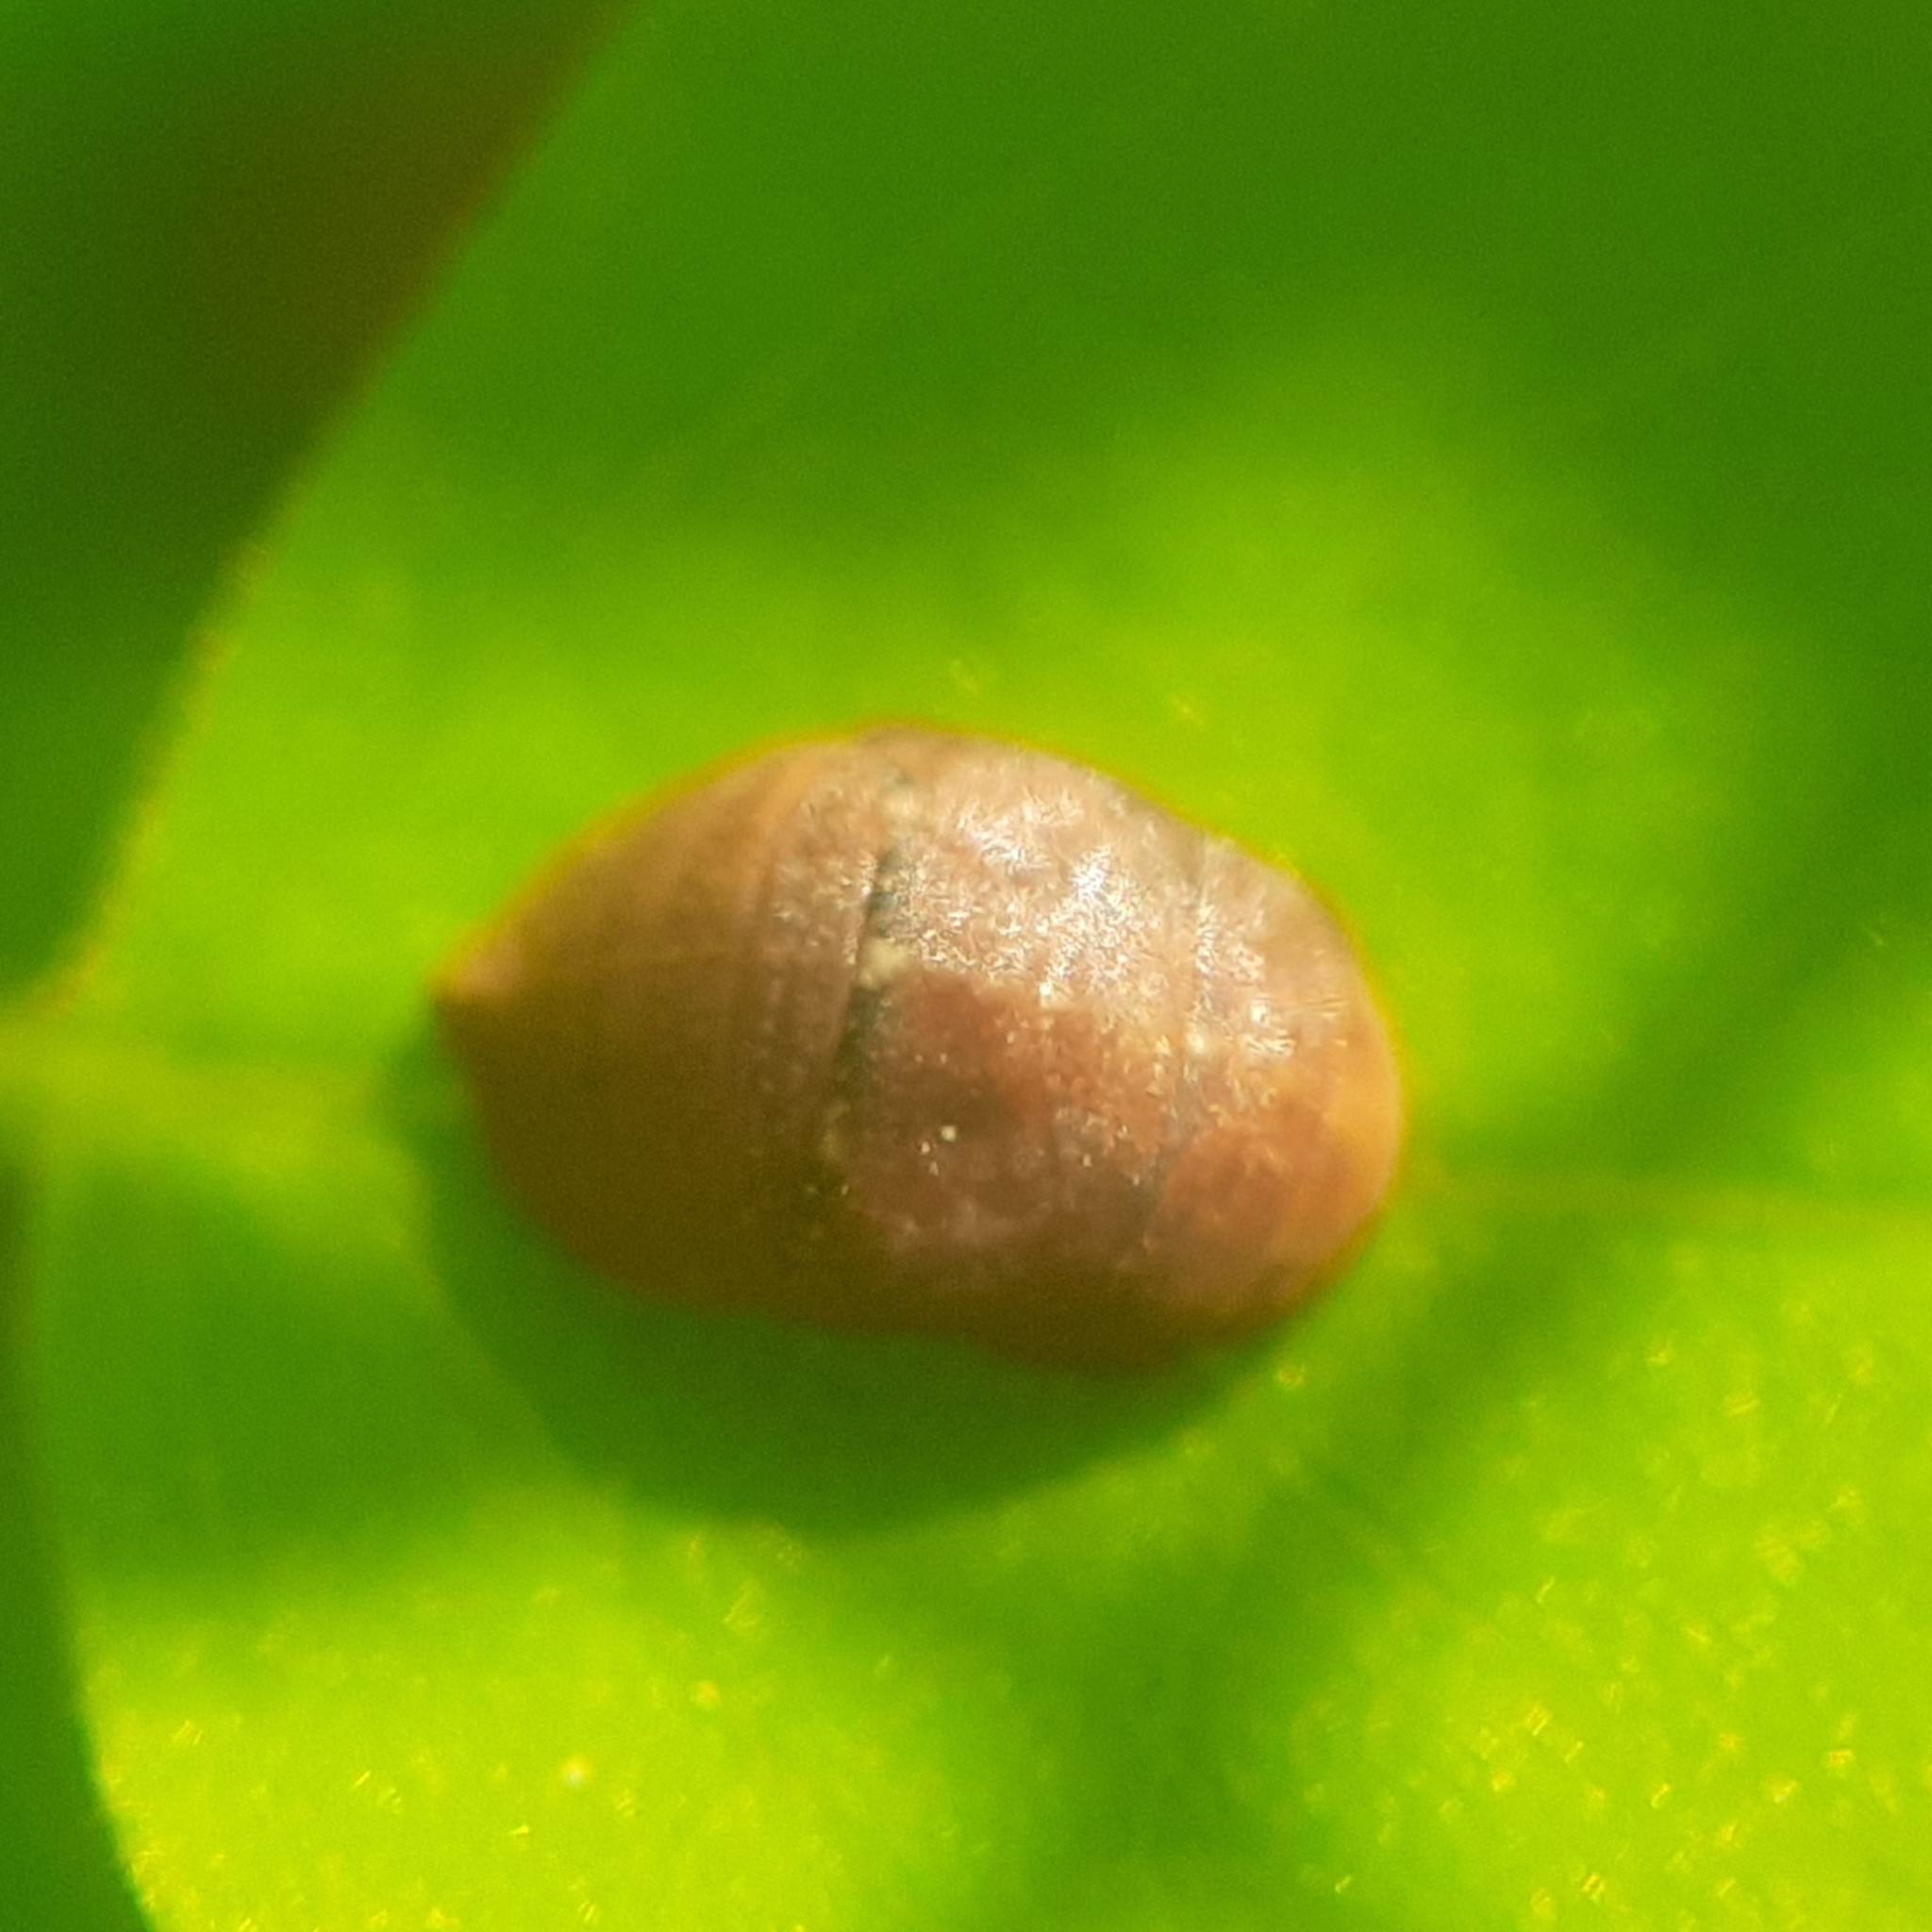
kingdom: Animalia
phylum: Arthropoda
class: Insecta
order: Hemiptera
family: Cicadellidae
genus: Penthimia
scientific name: Penthimia nigra
